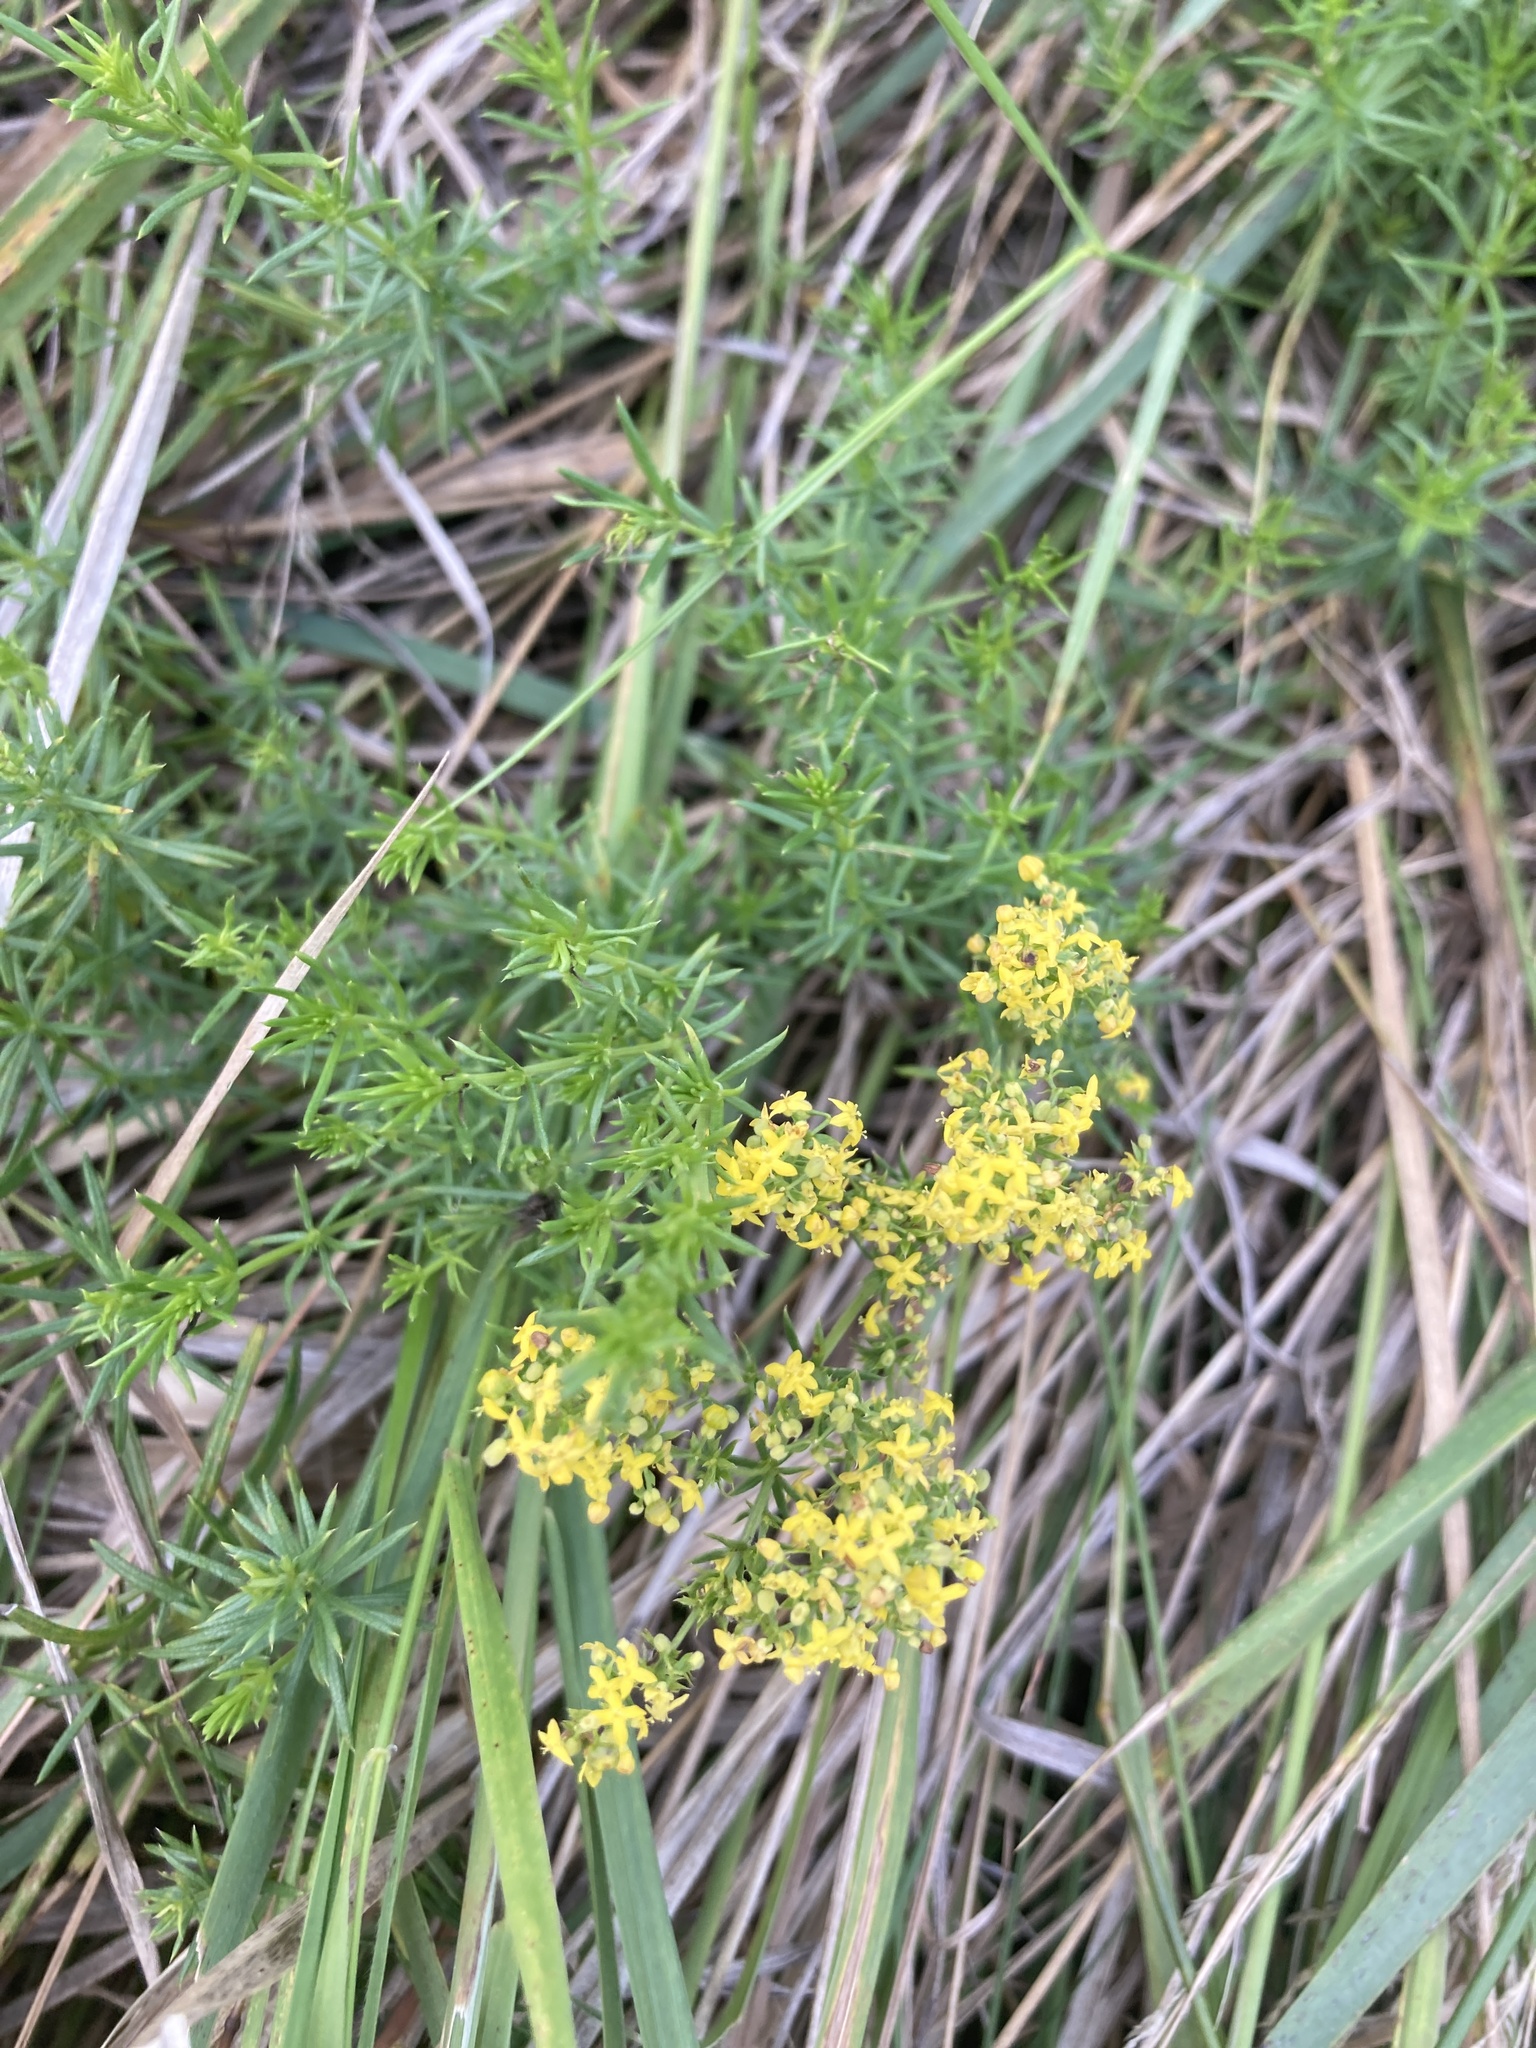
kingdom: Plantae
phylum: Tracheophyta
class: Magnoliopsida
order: Gentianales
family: Rubiaceae
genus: Galium
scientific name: Galium verum
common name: Lady's bedstraw
